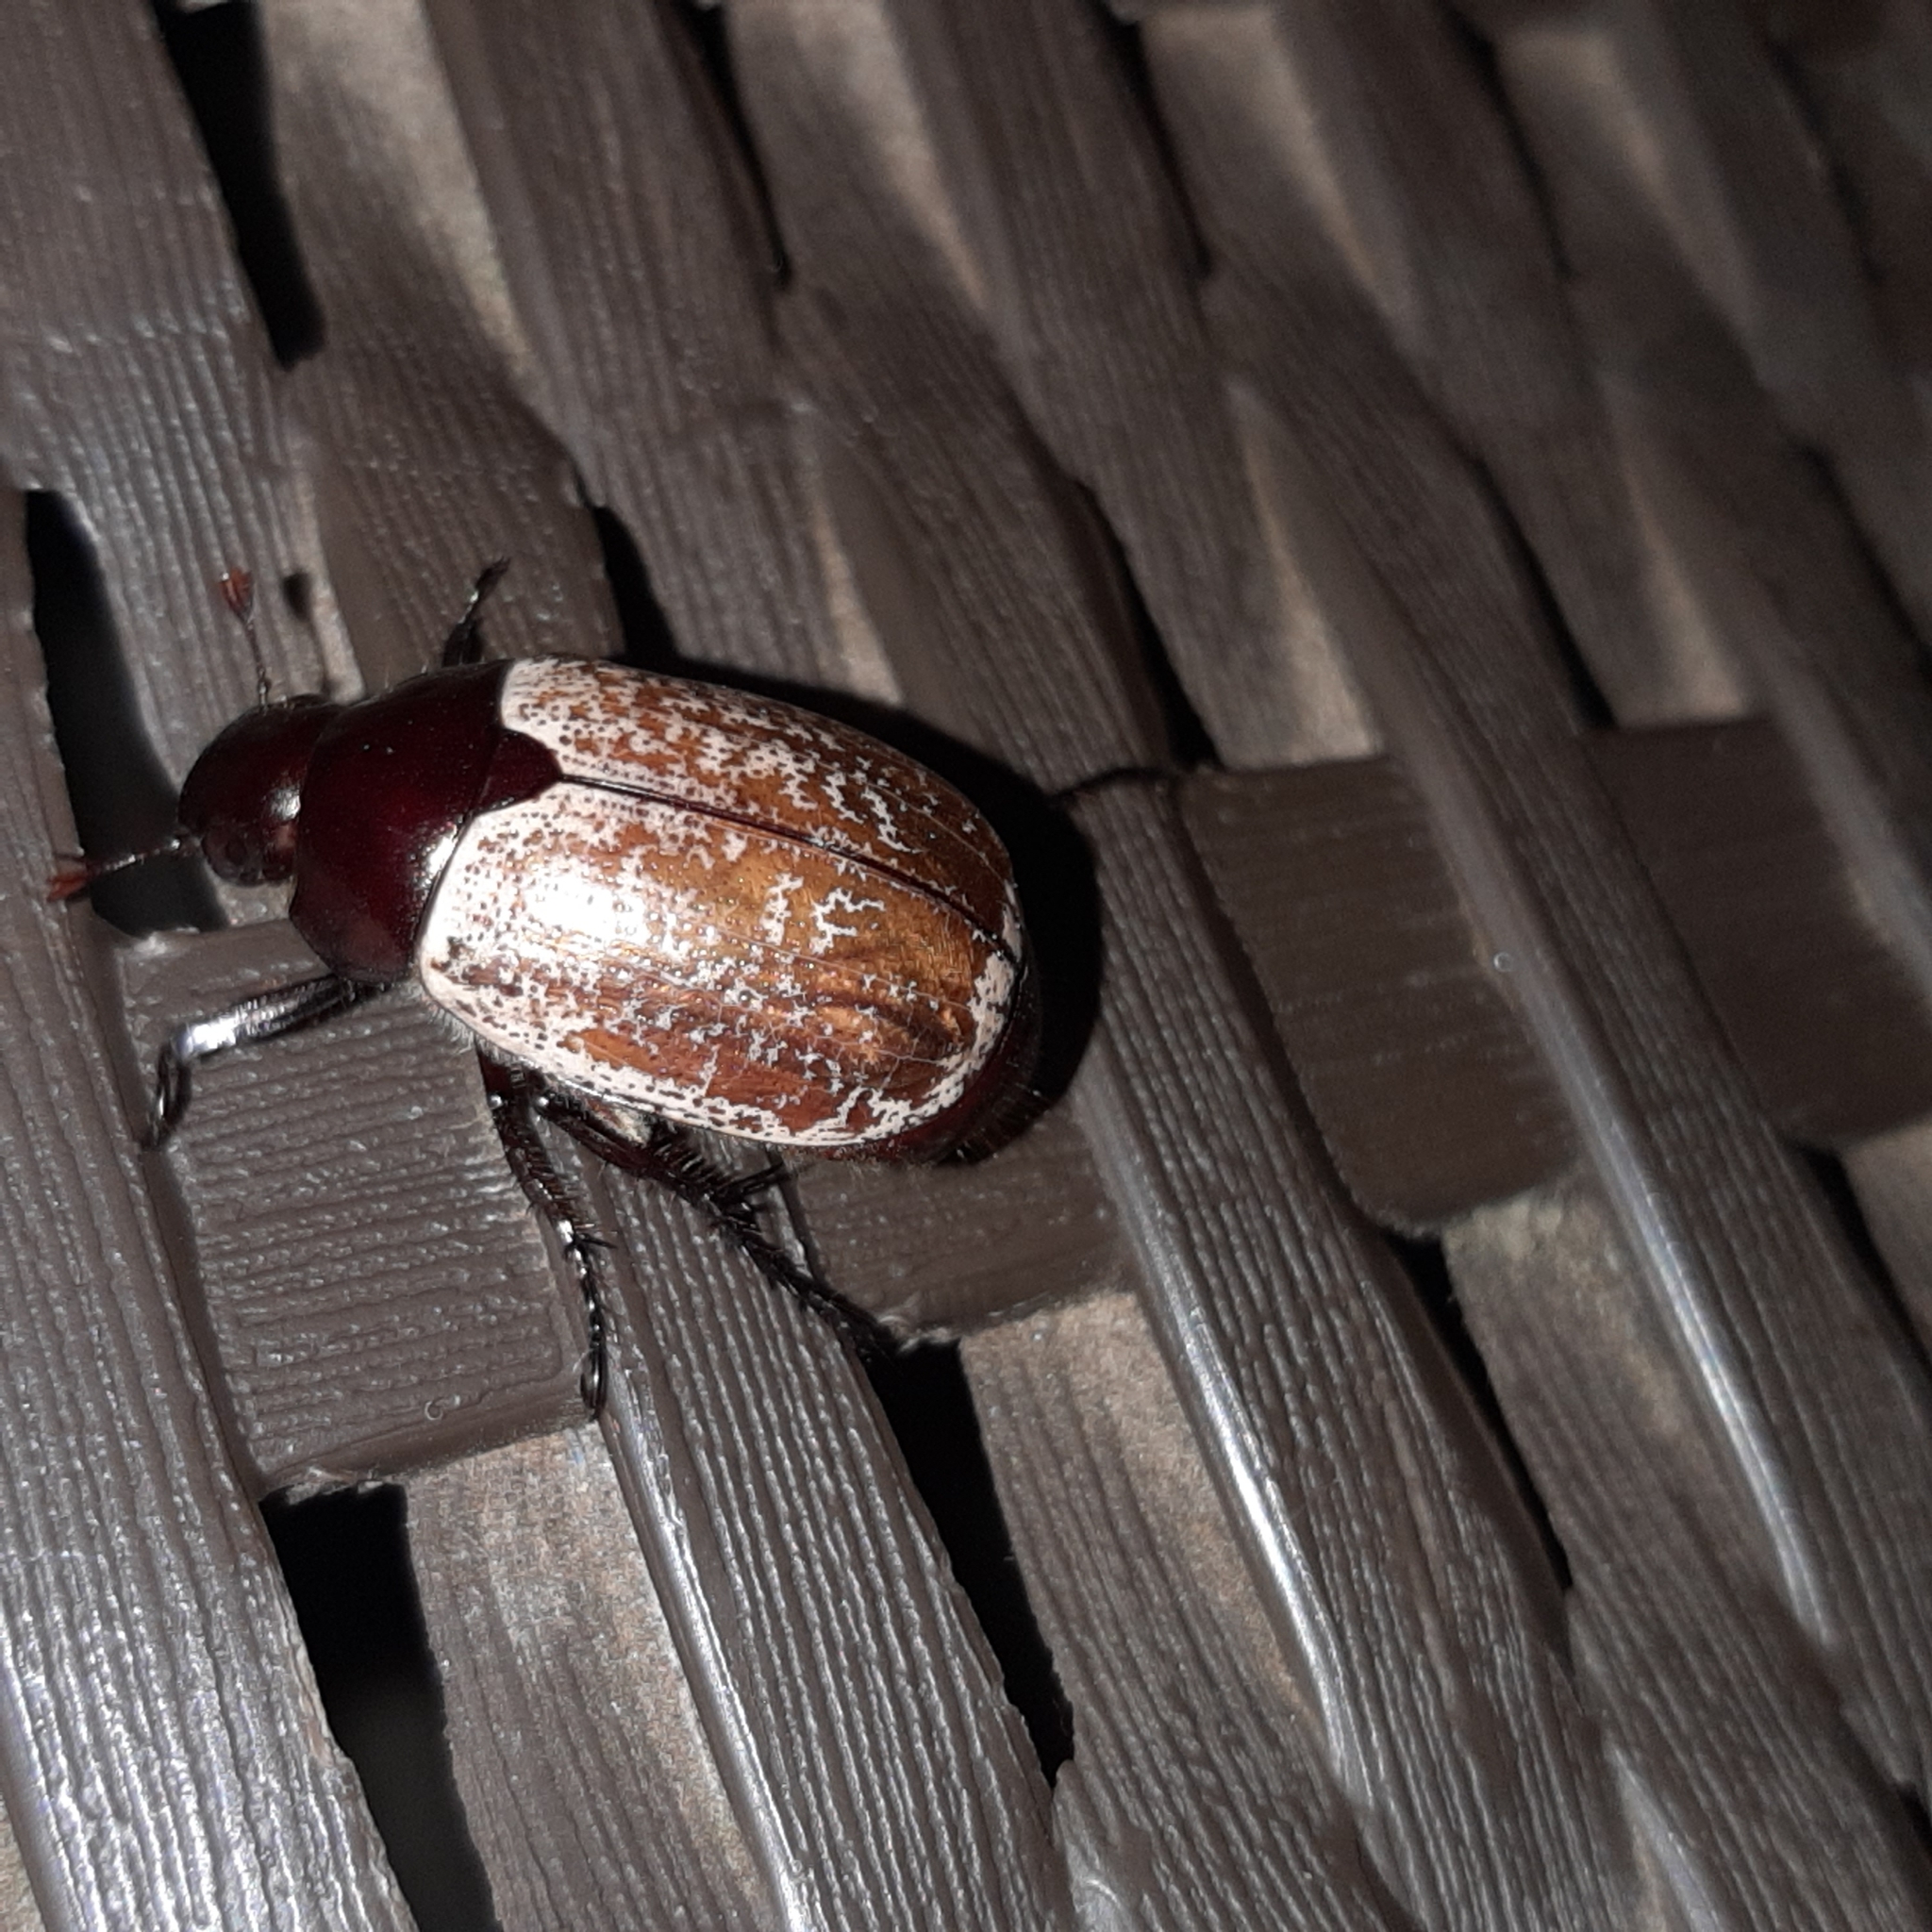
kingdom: Animalia
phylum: Arthropoda
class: Insecta
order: Coleoptera
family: Scarabaeidae
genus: Callistethus
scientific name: Callistethus
